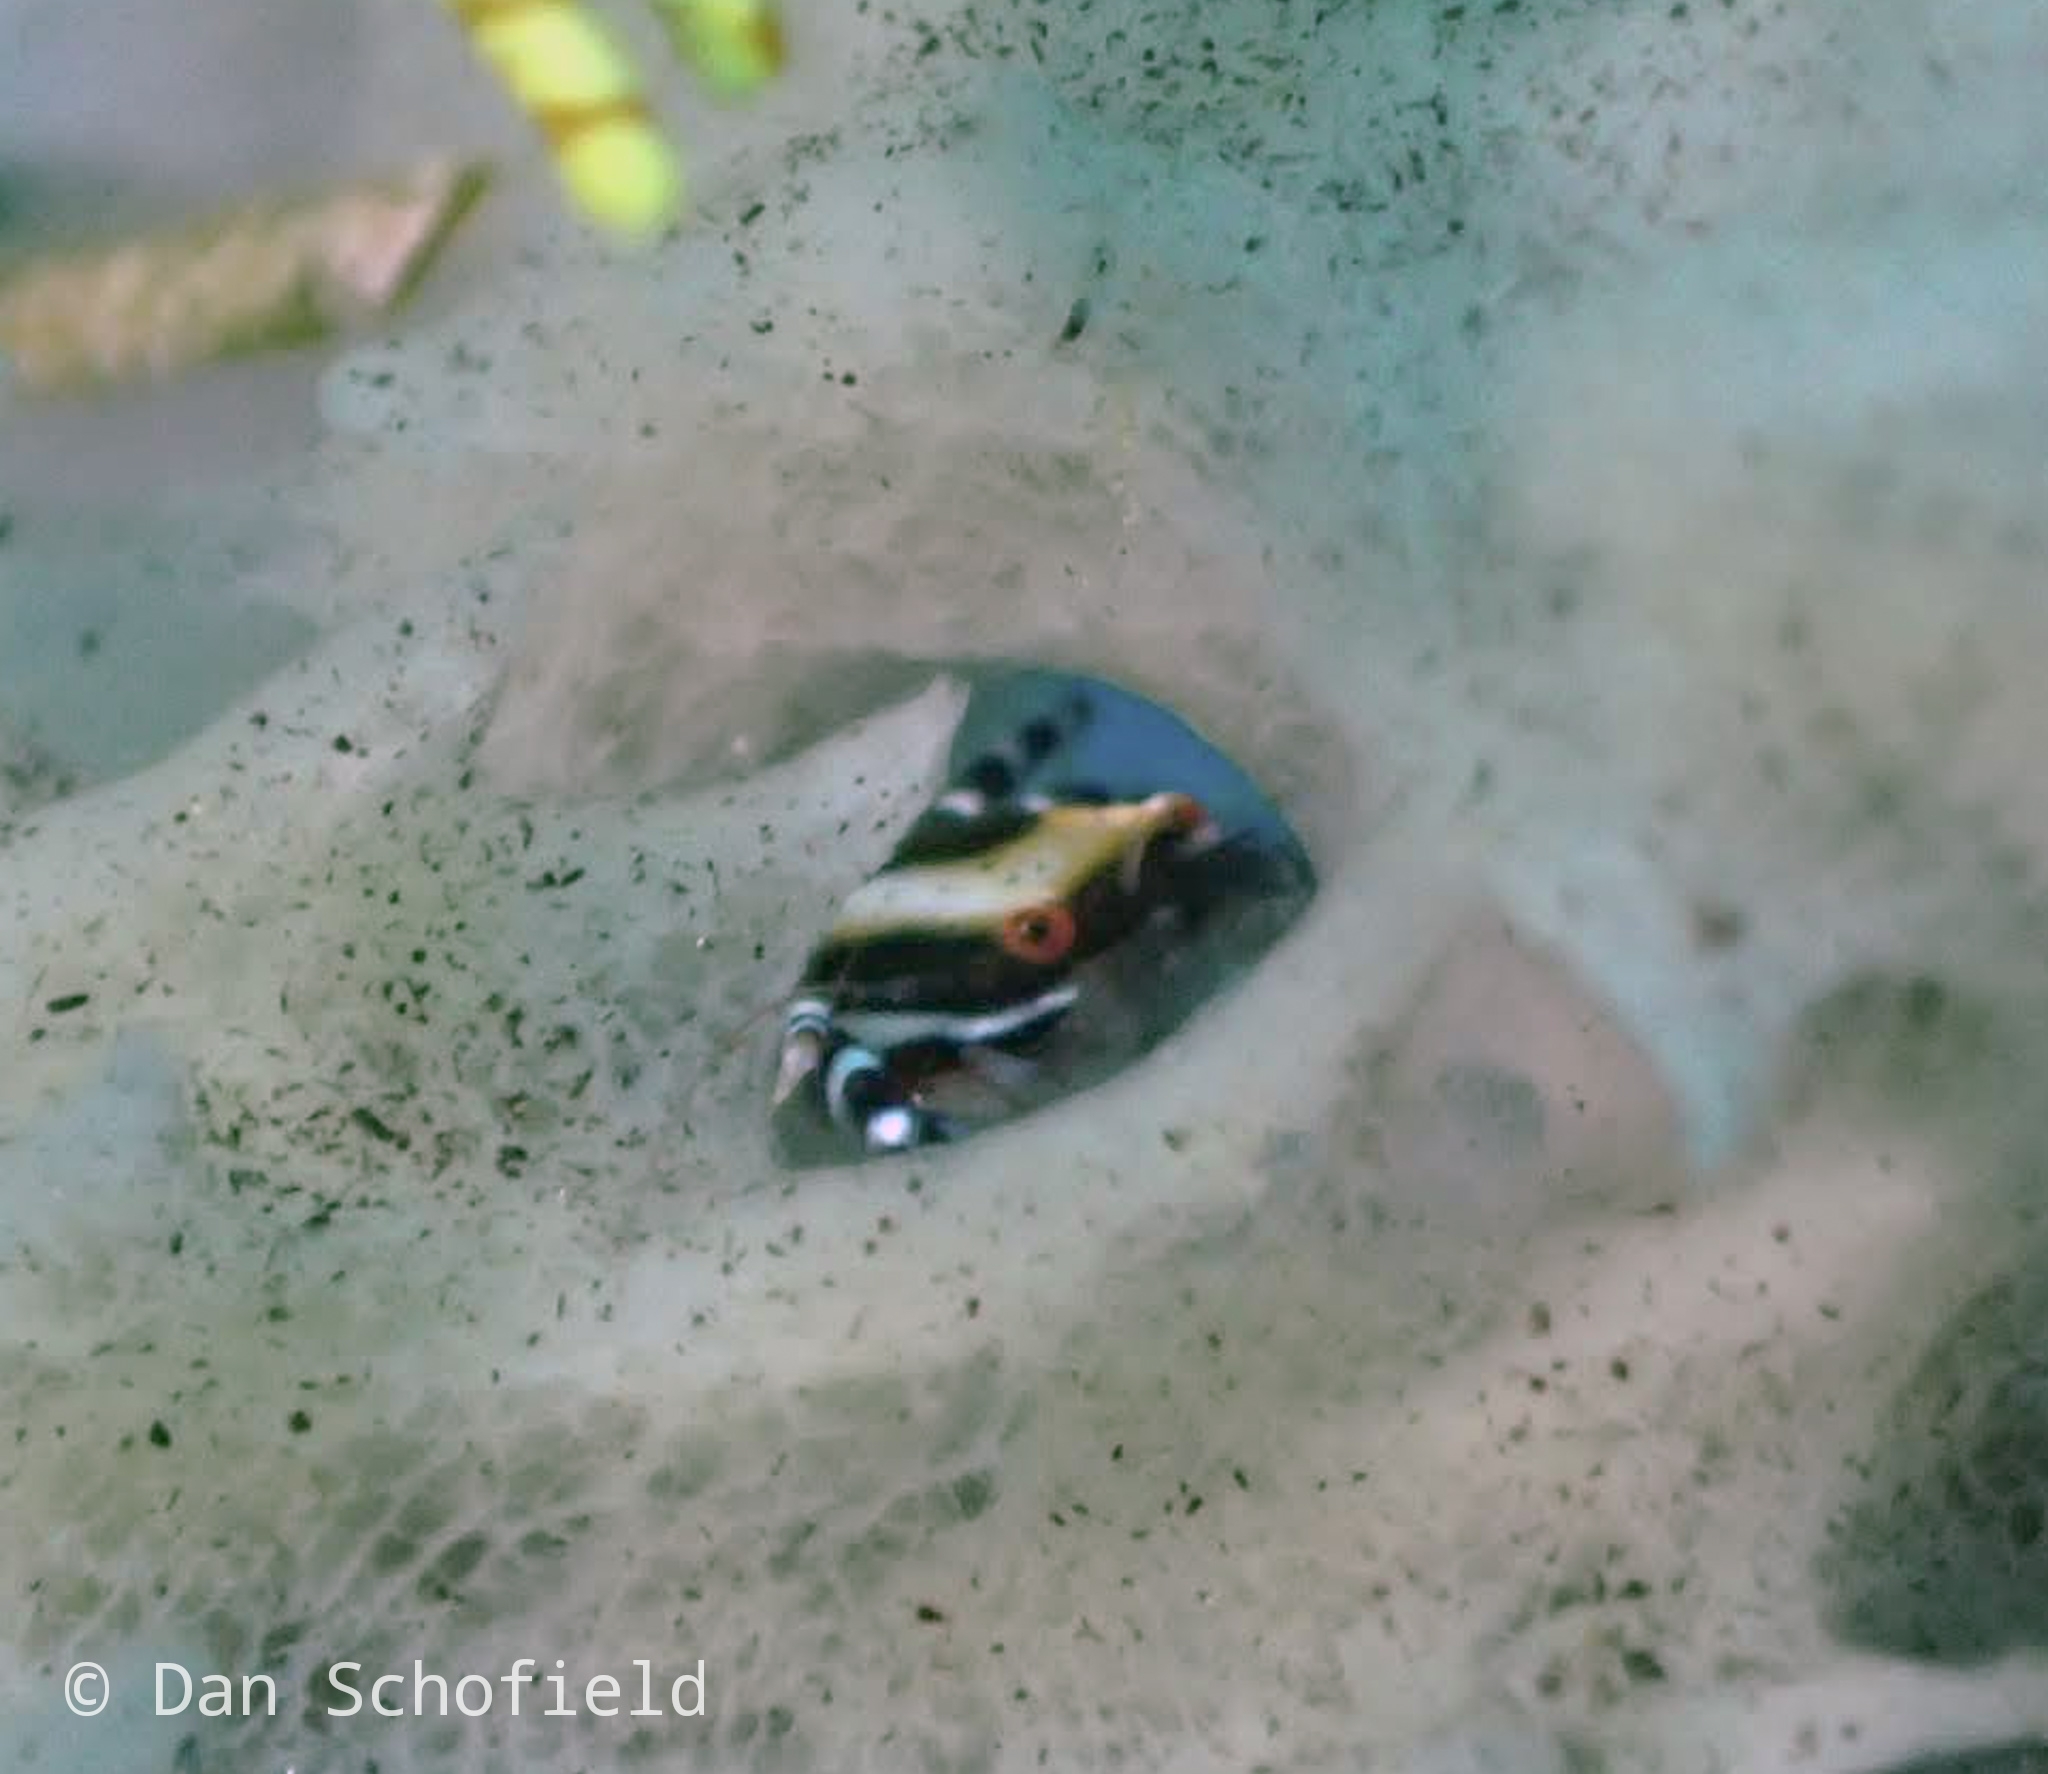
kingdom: Animalia
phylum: Arthropoda
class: Malacostraca
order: Decapoda
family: Galatheidae
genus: Allogalathea
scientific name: Allogalathea elegans
